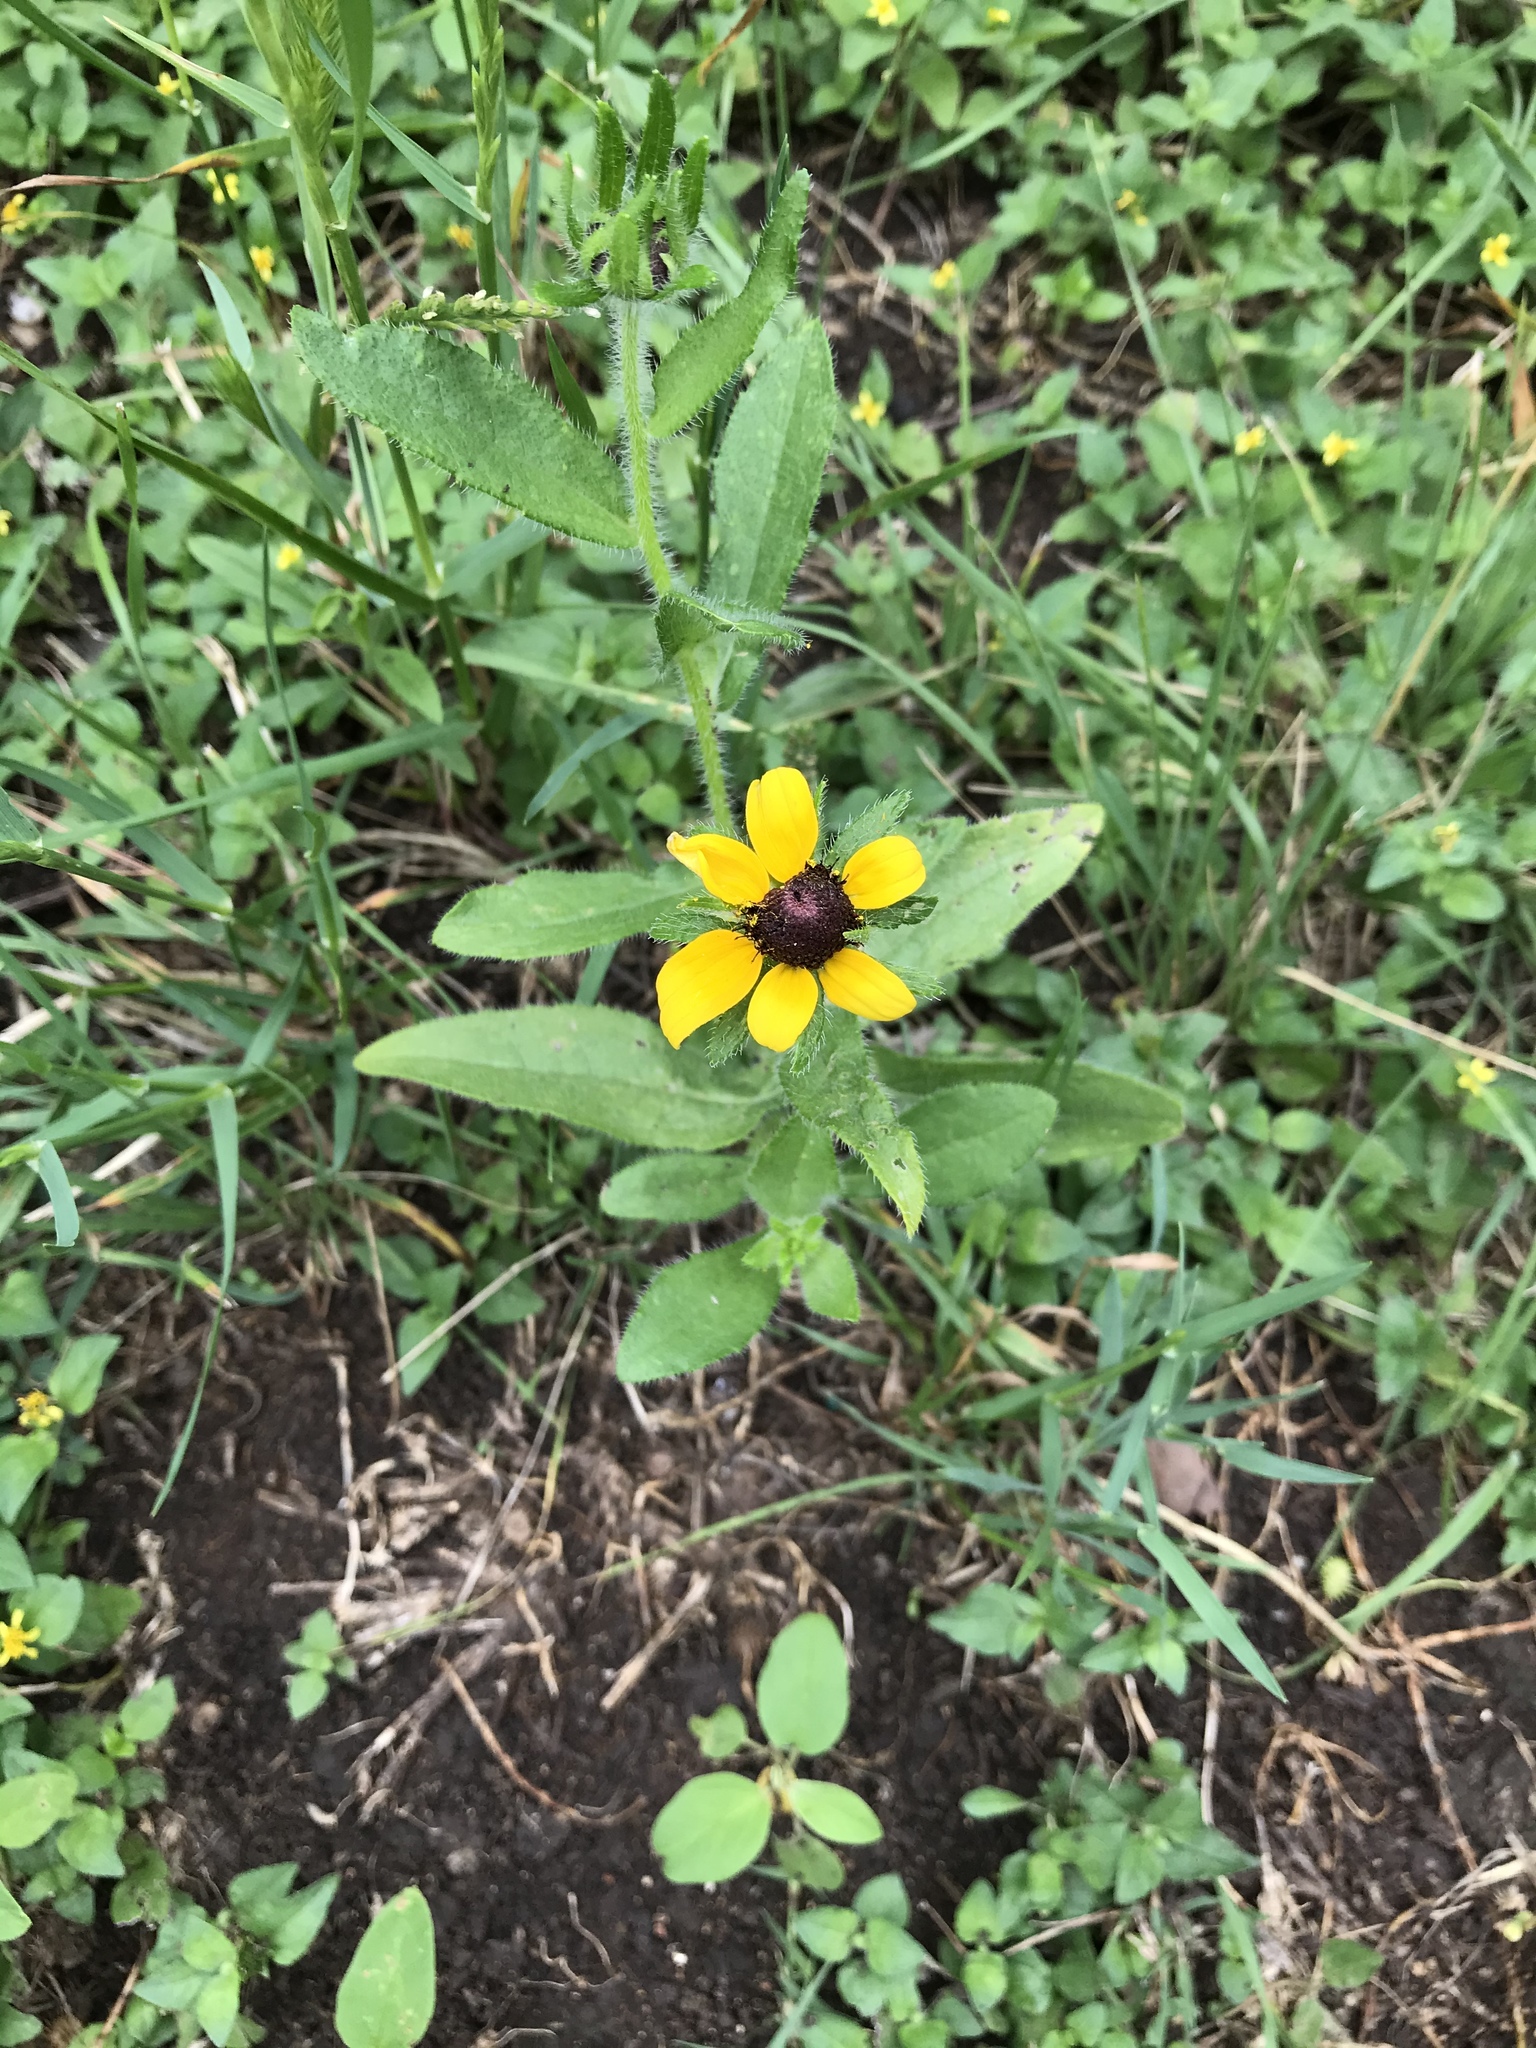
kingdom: Plantae
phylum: Tracheophyta
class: Magnoliopsida
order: Asterales
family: Asteraceae
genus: Rudbeckia
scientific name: Rudbeckia hirta
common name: Black-eyed-susan
